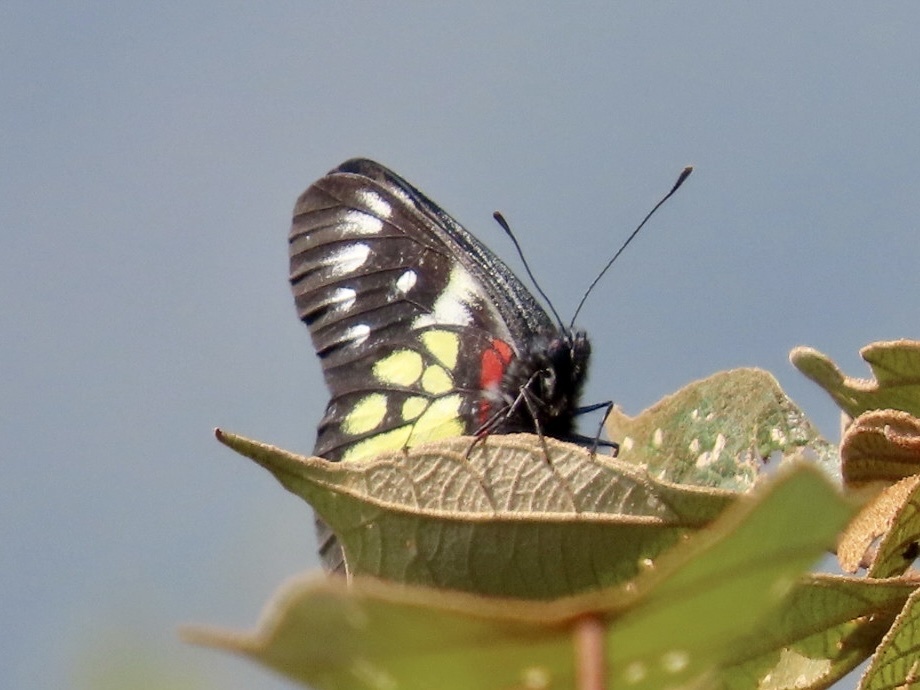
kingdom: Animalia
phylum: Arthropoda
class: Insecta
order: Lepidoptera
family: Pieridae
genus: Delias
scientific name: Delias pasithoe
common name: Red-base jezebel
